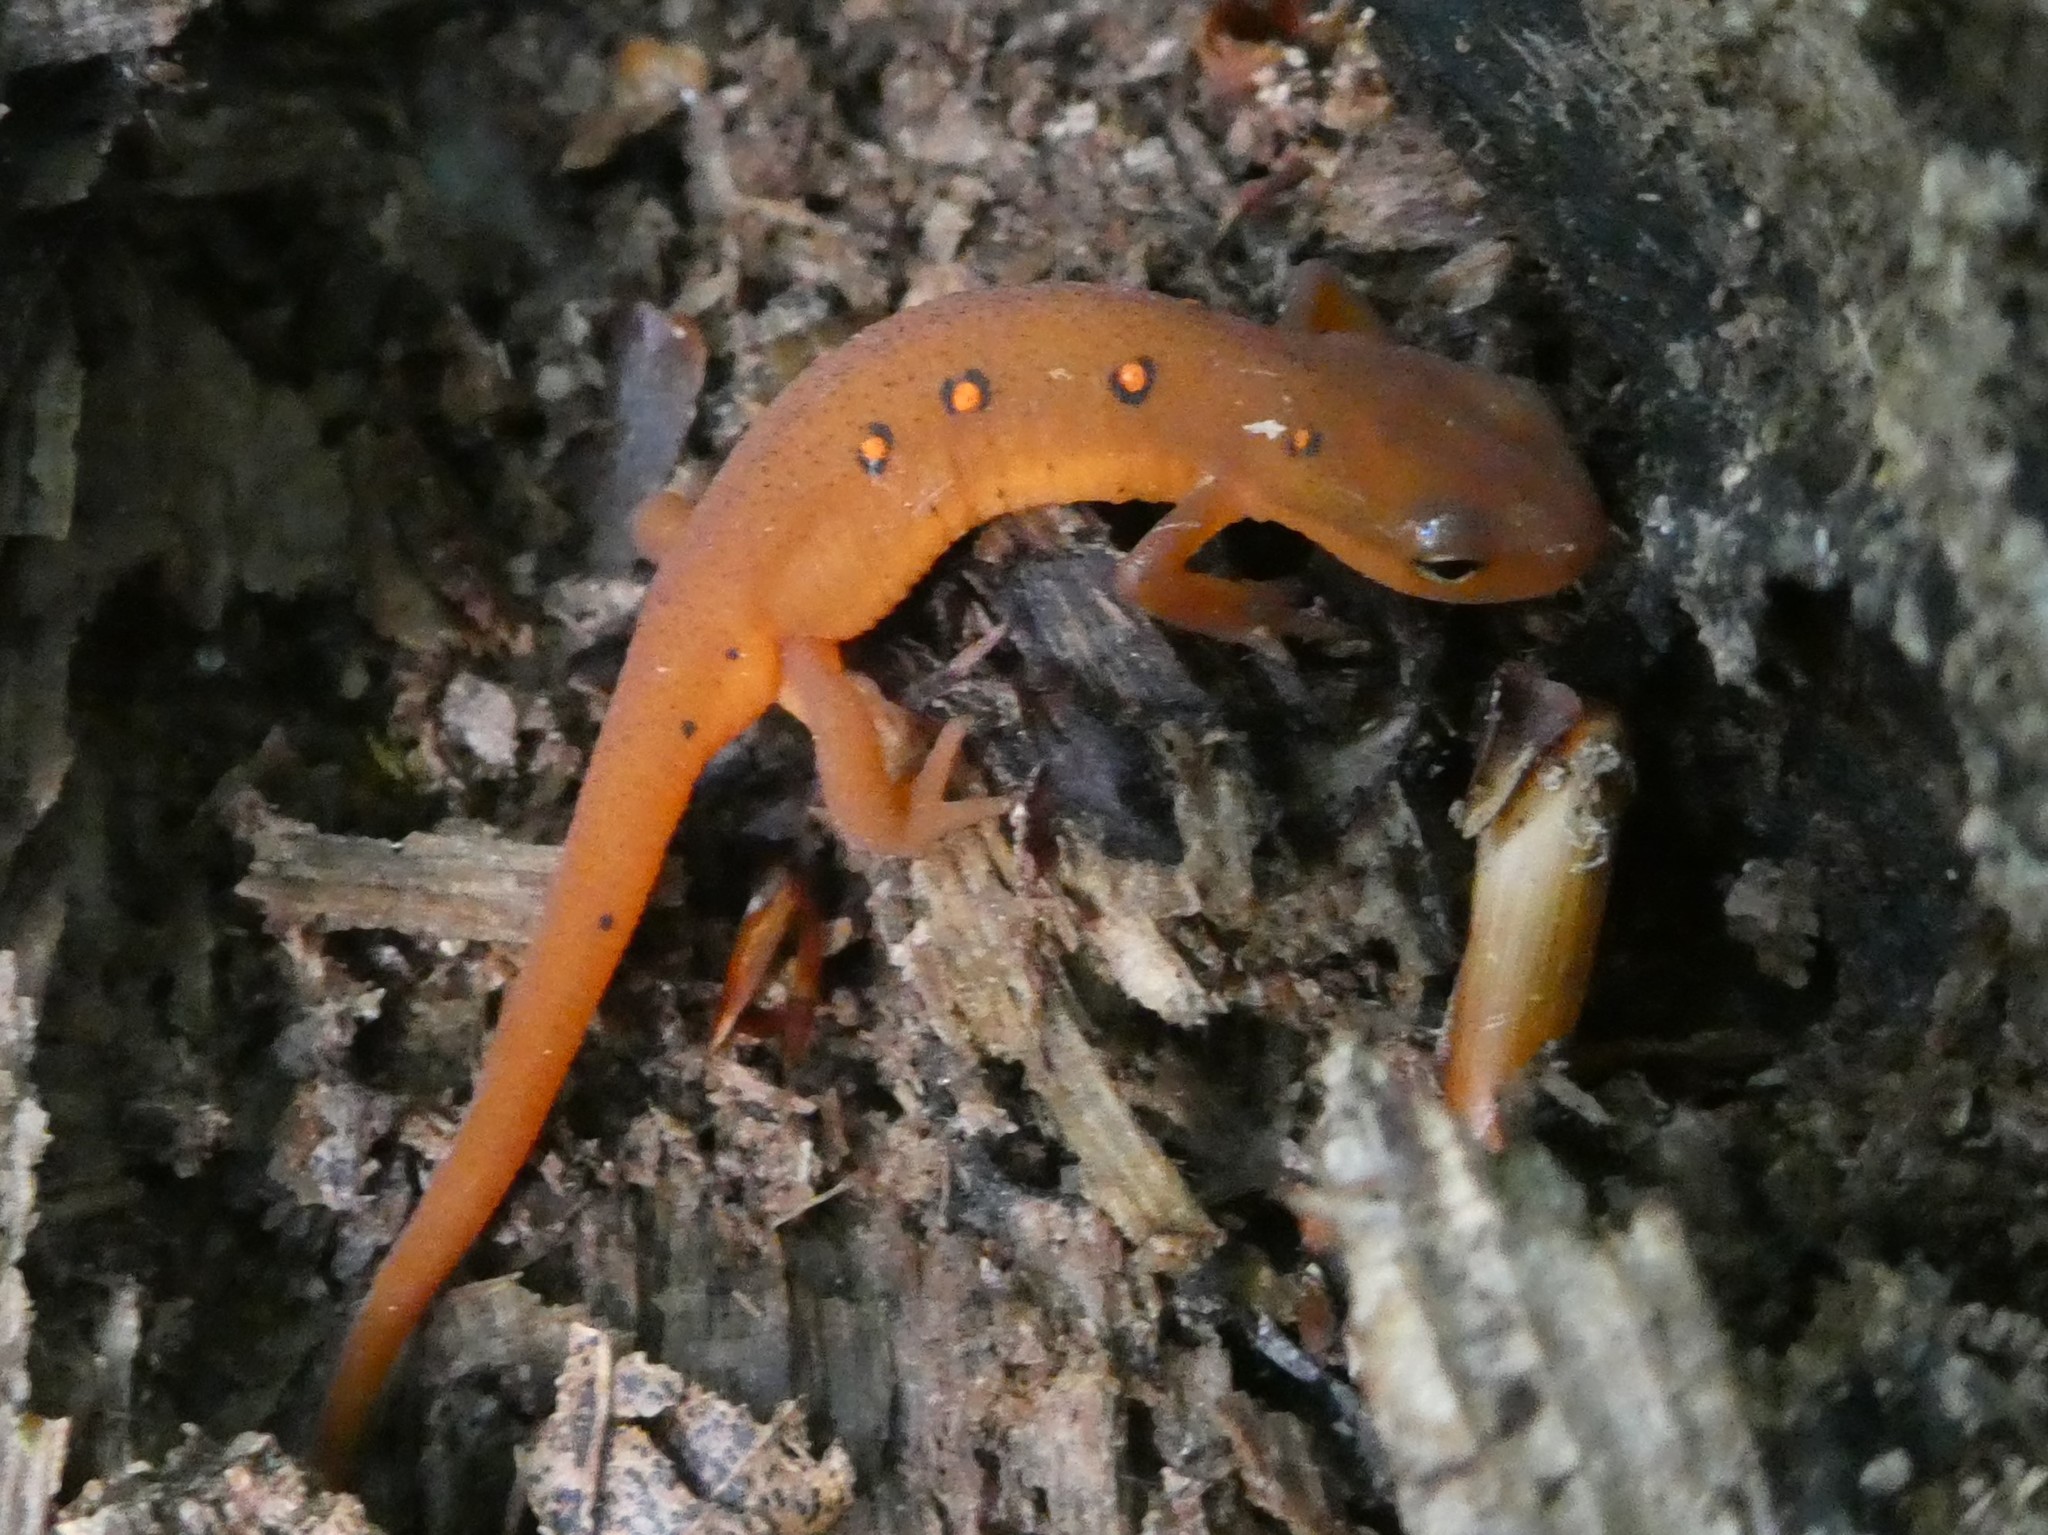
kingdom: Animalia
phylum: Chordata
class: Amphibia
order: Caudata
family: Salamandridae
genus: Notophthalmus
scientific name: Notophthalmus viridescens
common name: Eastern newt
